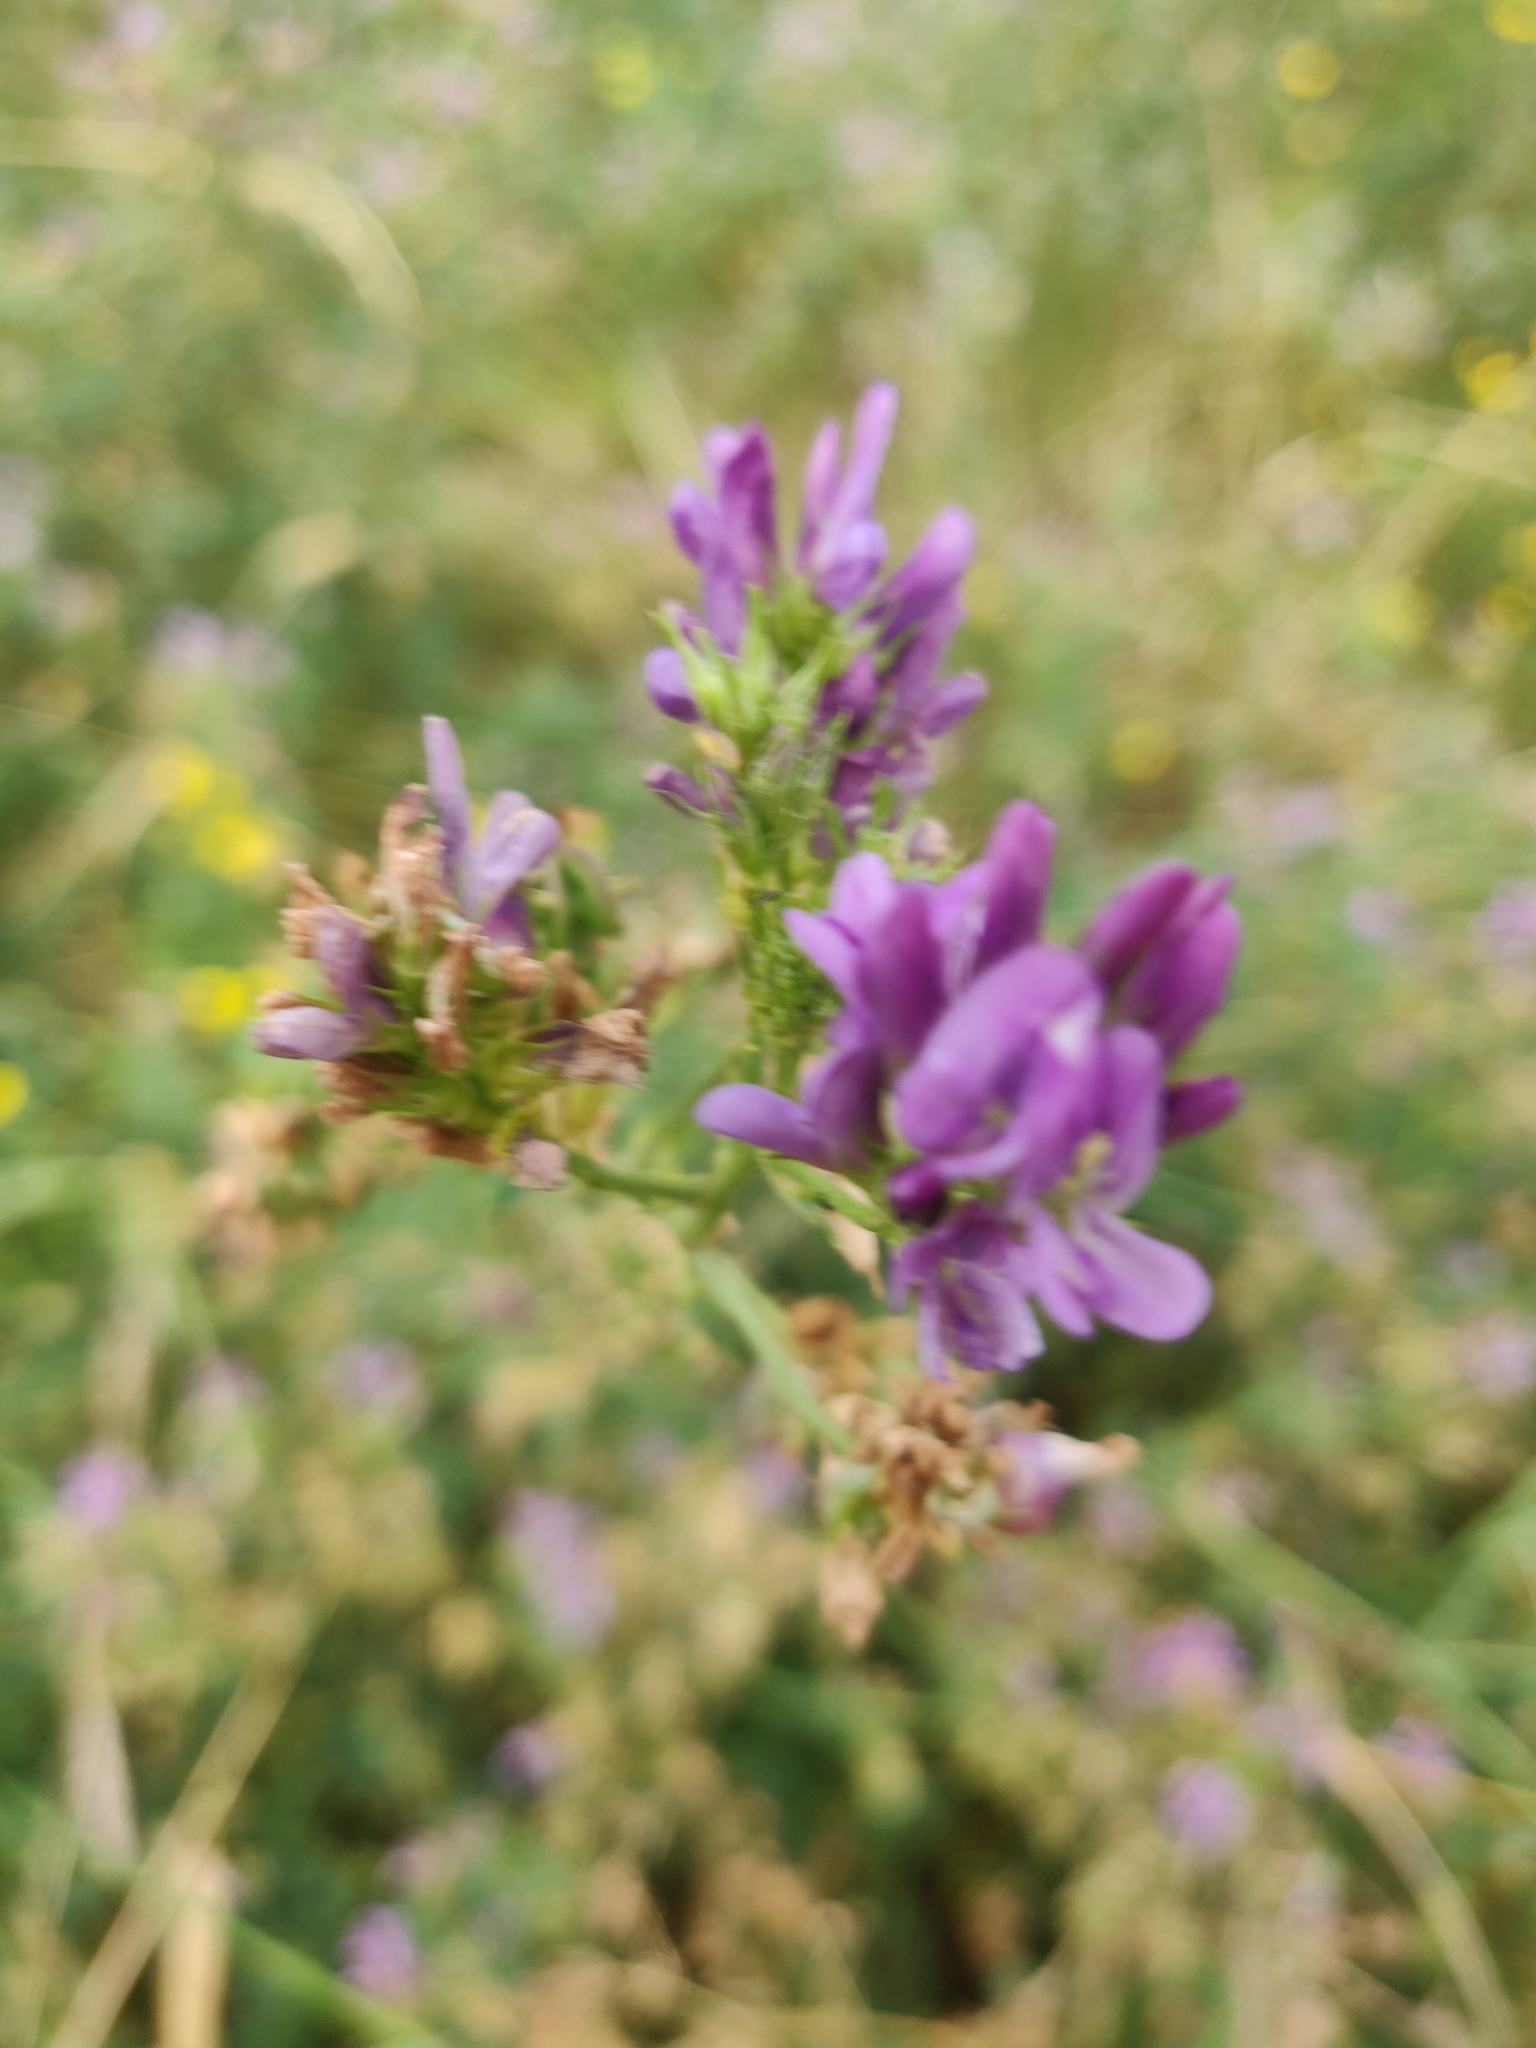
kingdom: Plantae
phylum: Tracheophyta
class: Magnoliopsida
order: Fabales
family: Fabaceae
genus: Medicago
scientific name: Medicago sativa
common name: Alfalfa
